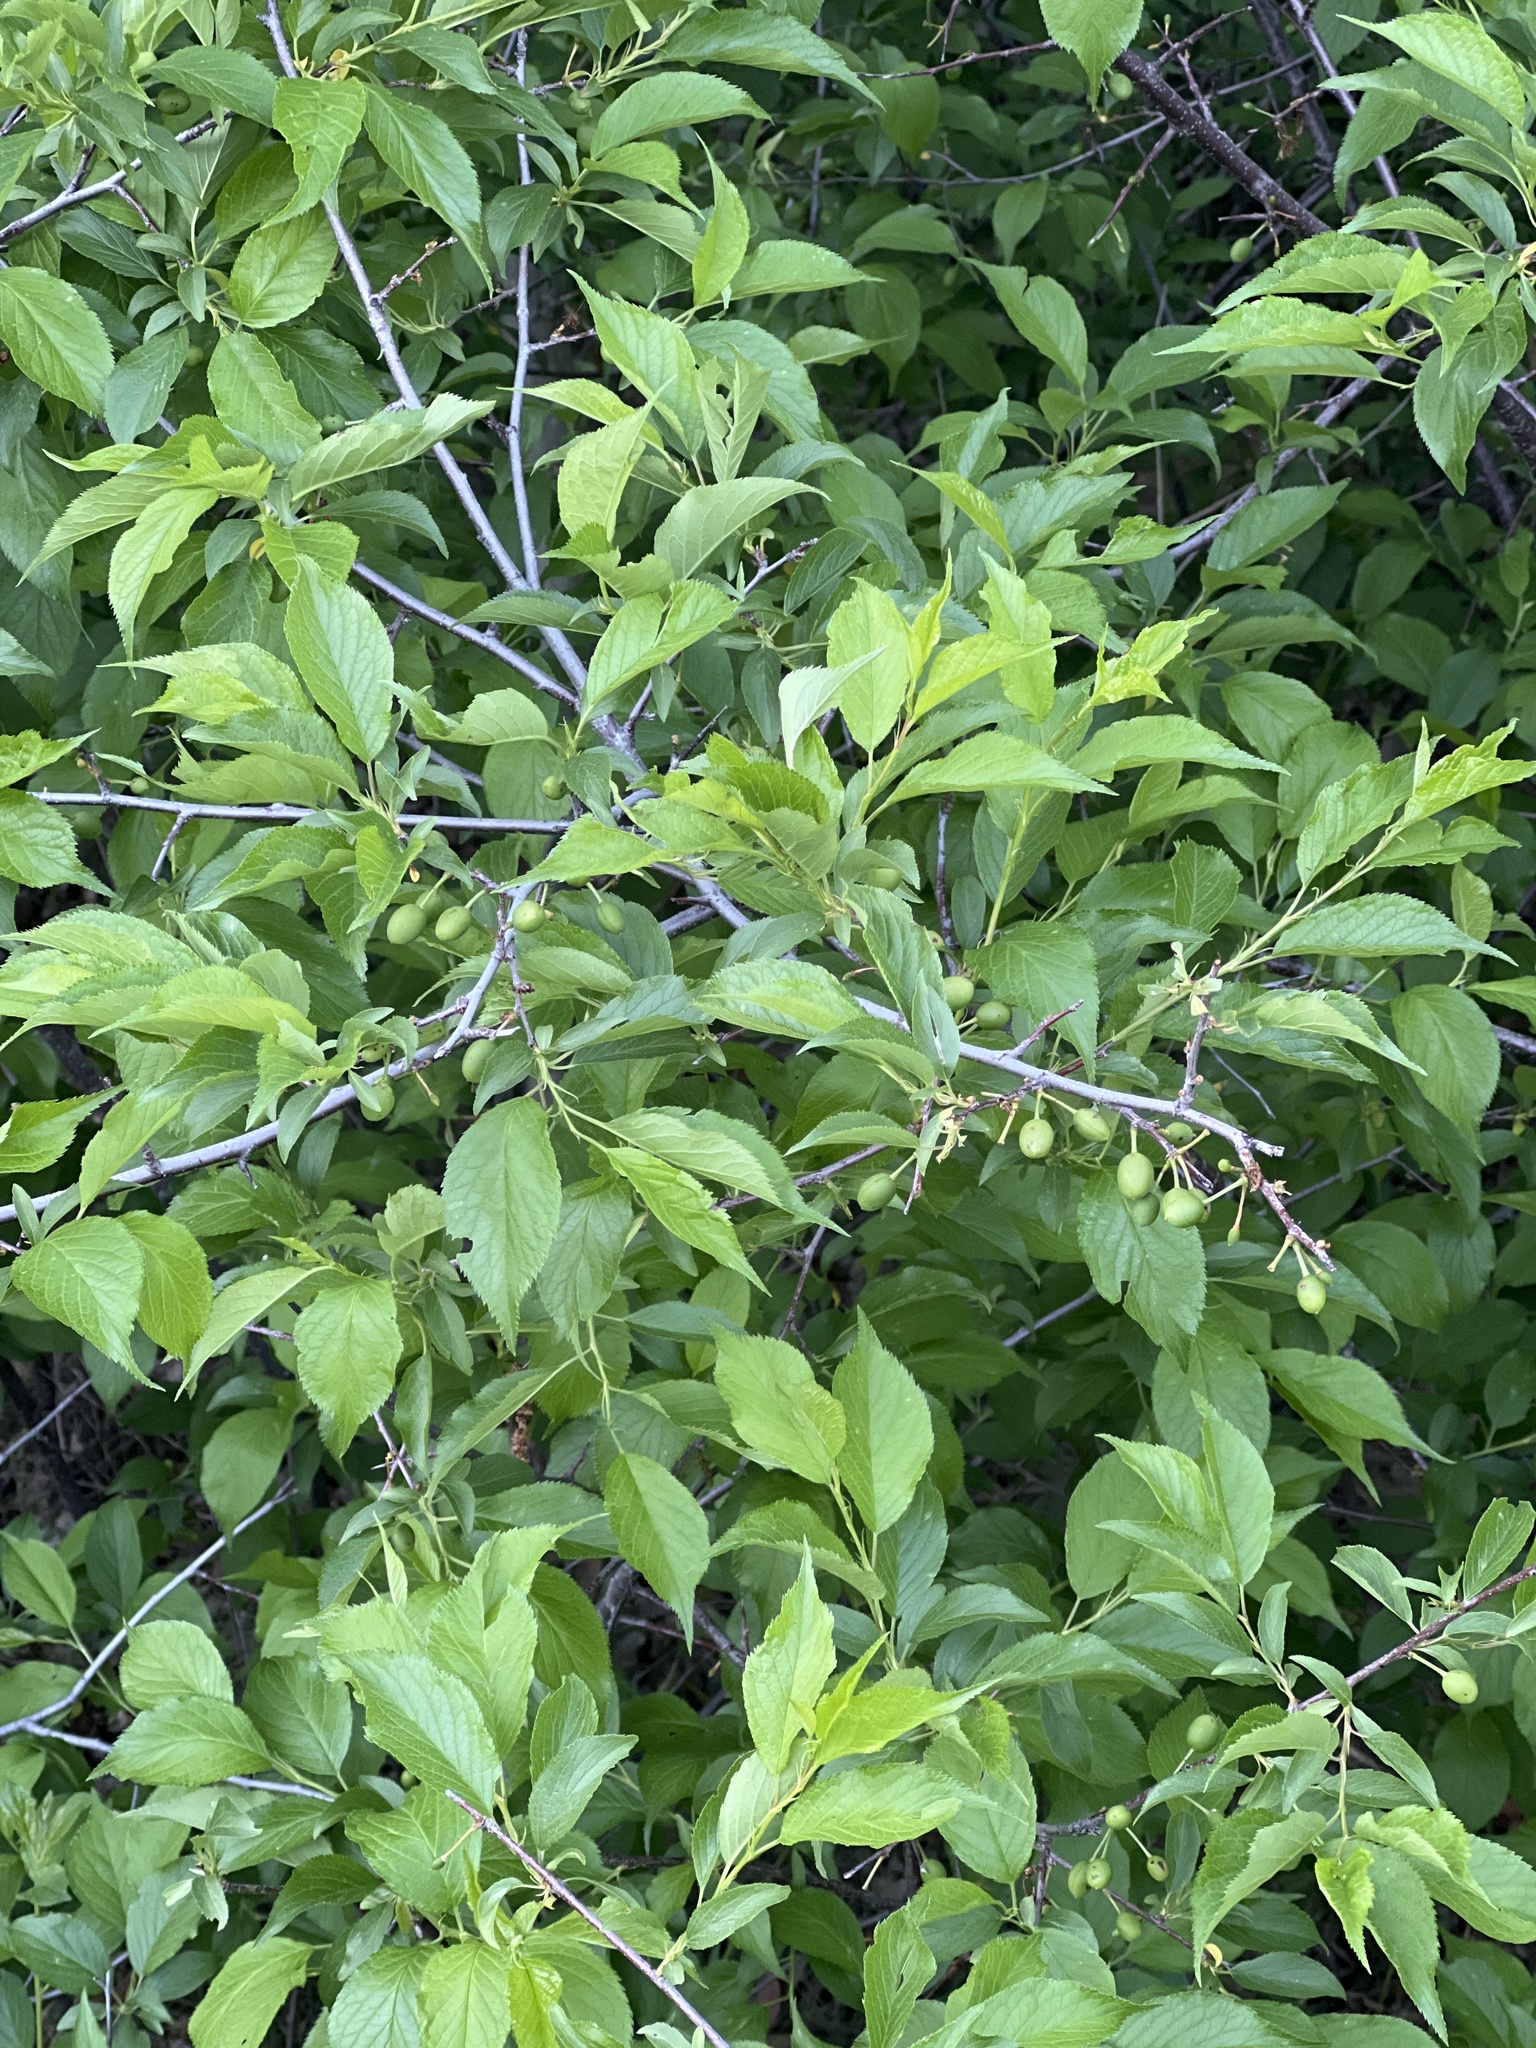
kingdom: Plantae
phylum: Tracheophyta
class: Magnoliopsida
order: Rosales
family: Rosaceae
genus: Prunus
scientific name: Prunus americana
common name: American plum
